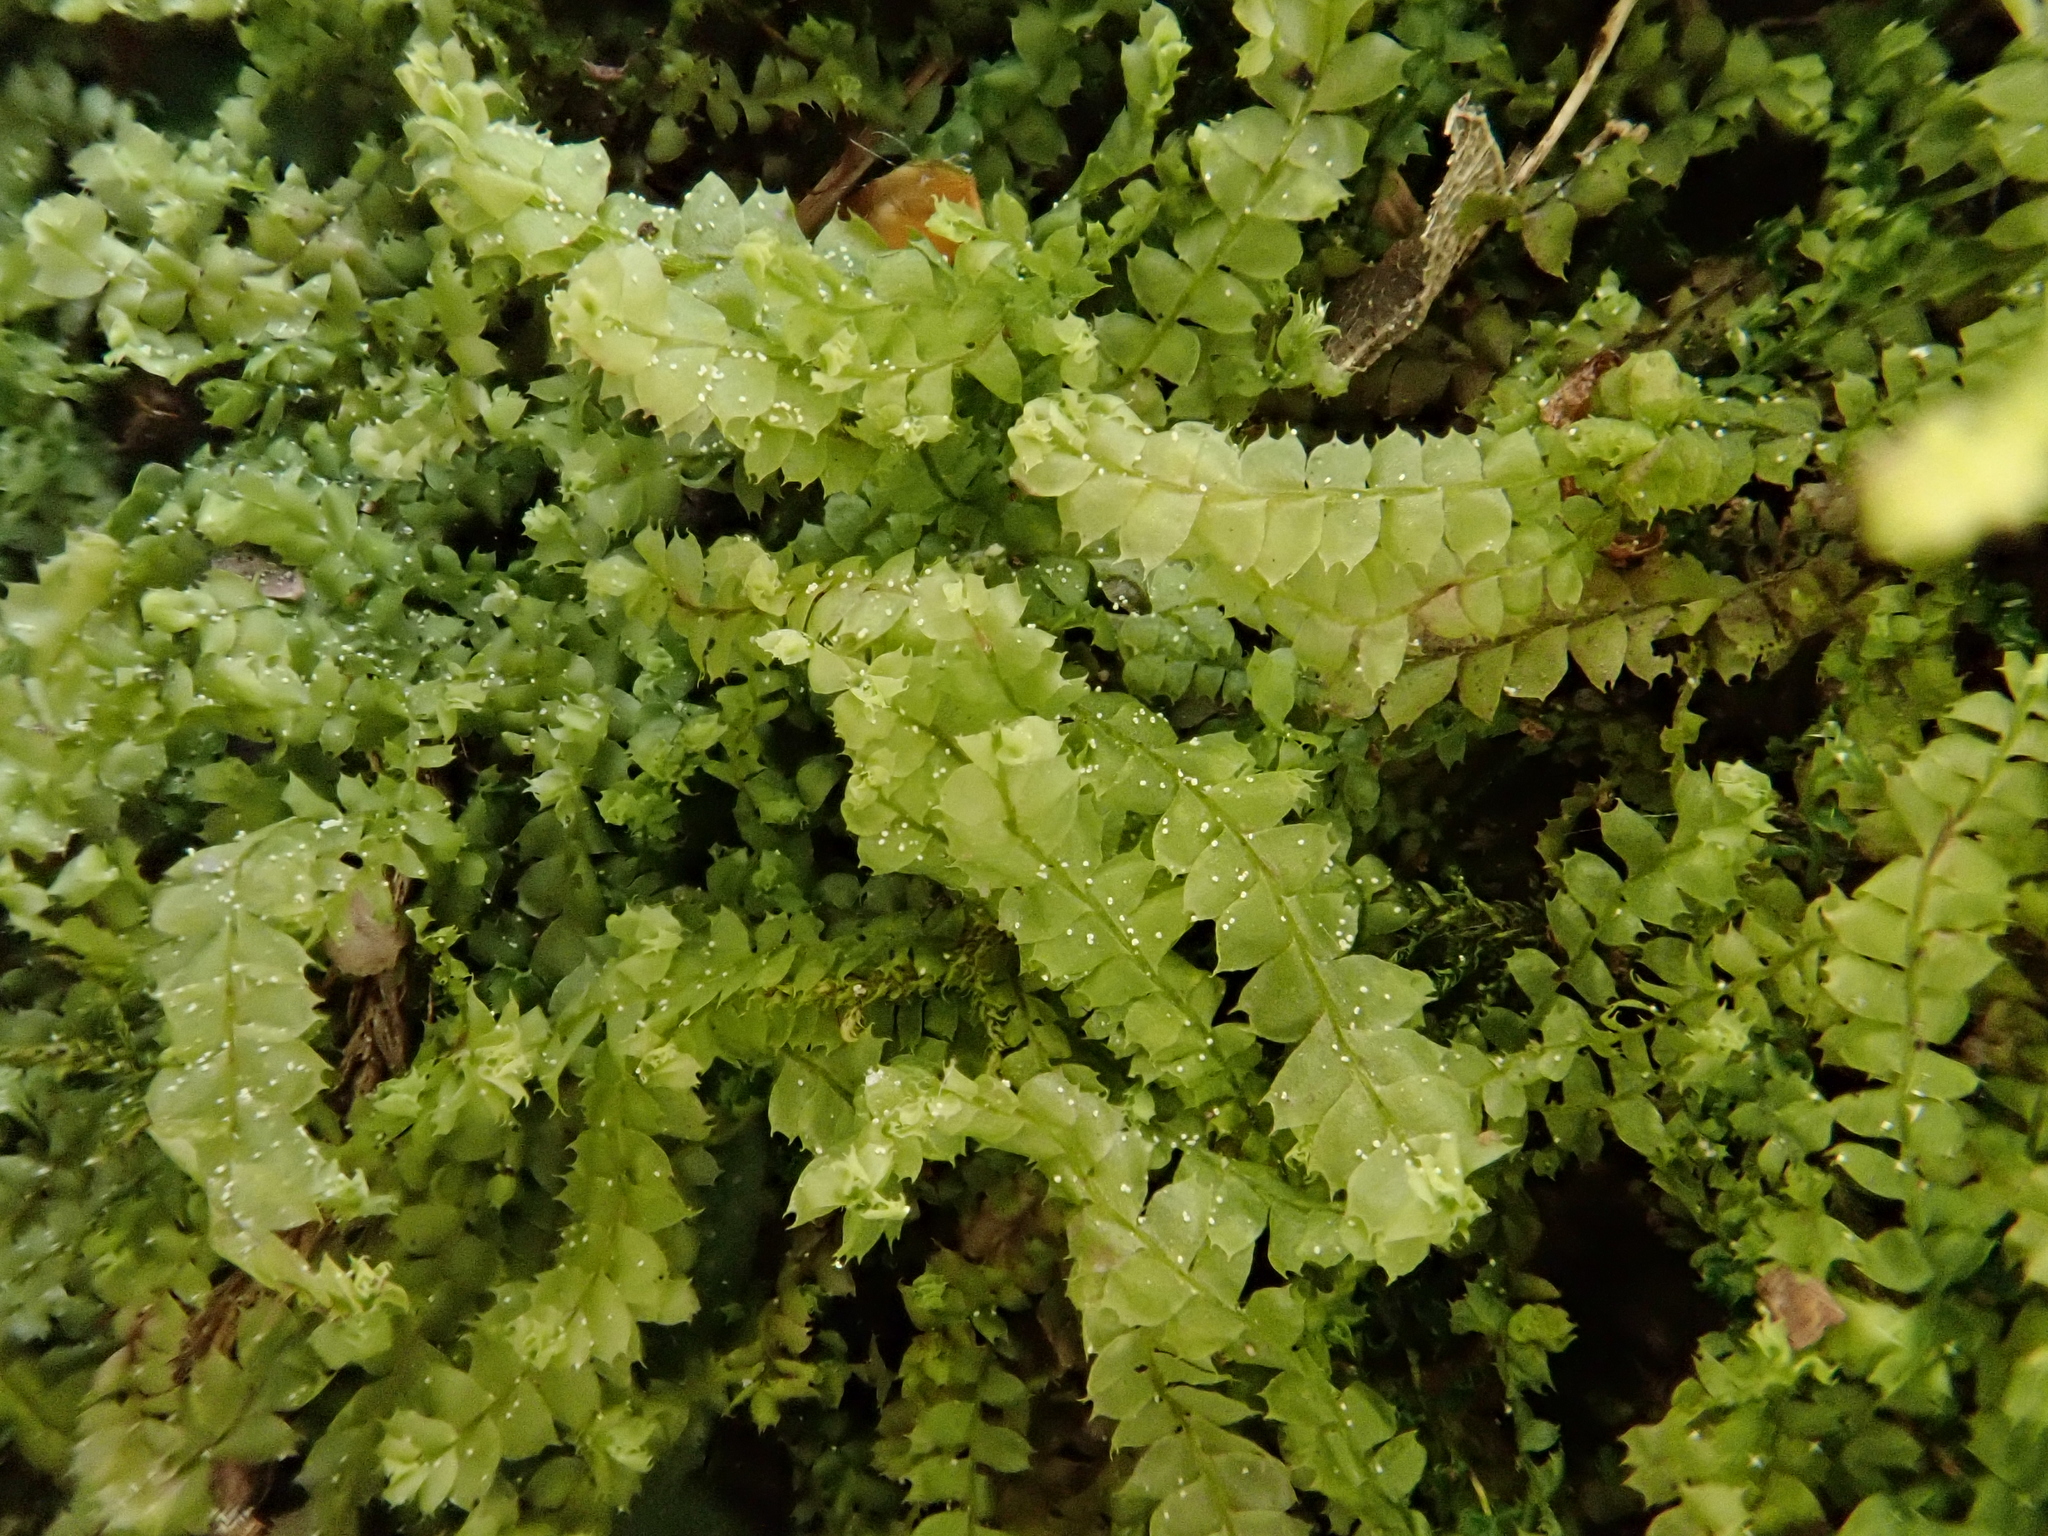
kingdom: Plantae
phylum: Marchantiophyta
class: Jungermanniopsida
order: Jungermanniales
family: Lophocoleaceae
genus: Lophocolea
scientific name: Lophocolea bidentata
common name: Bifid crestwort
